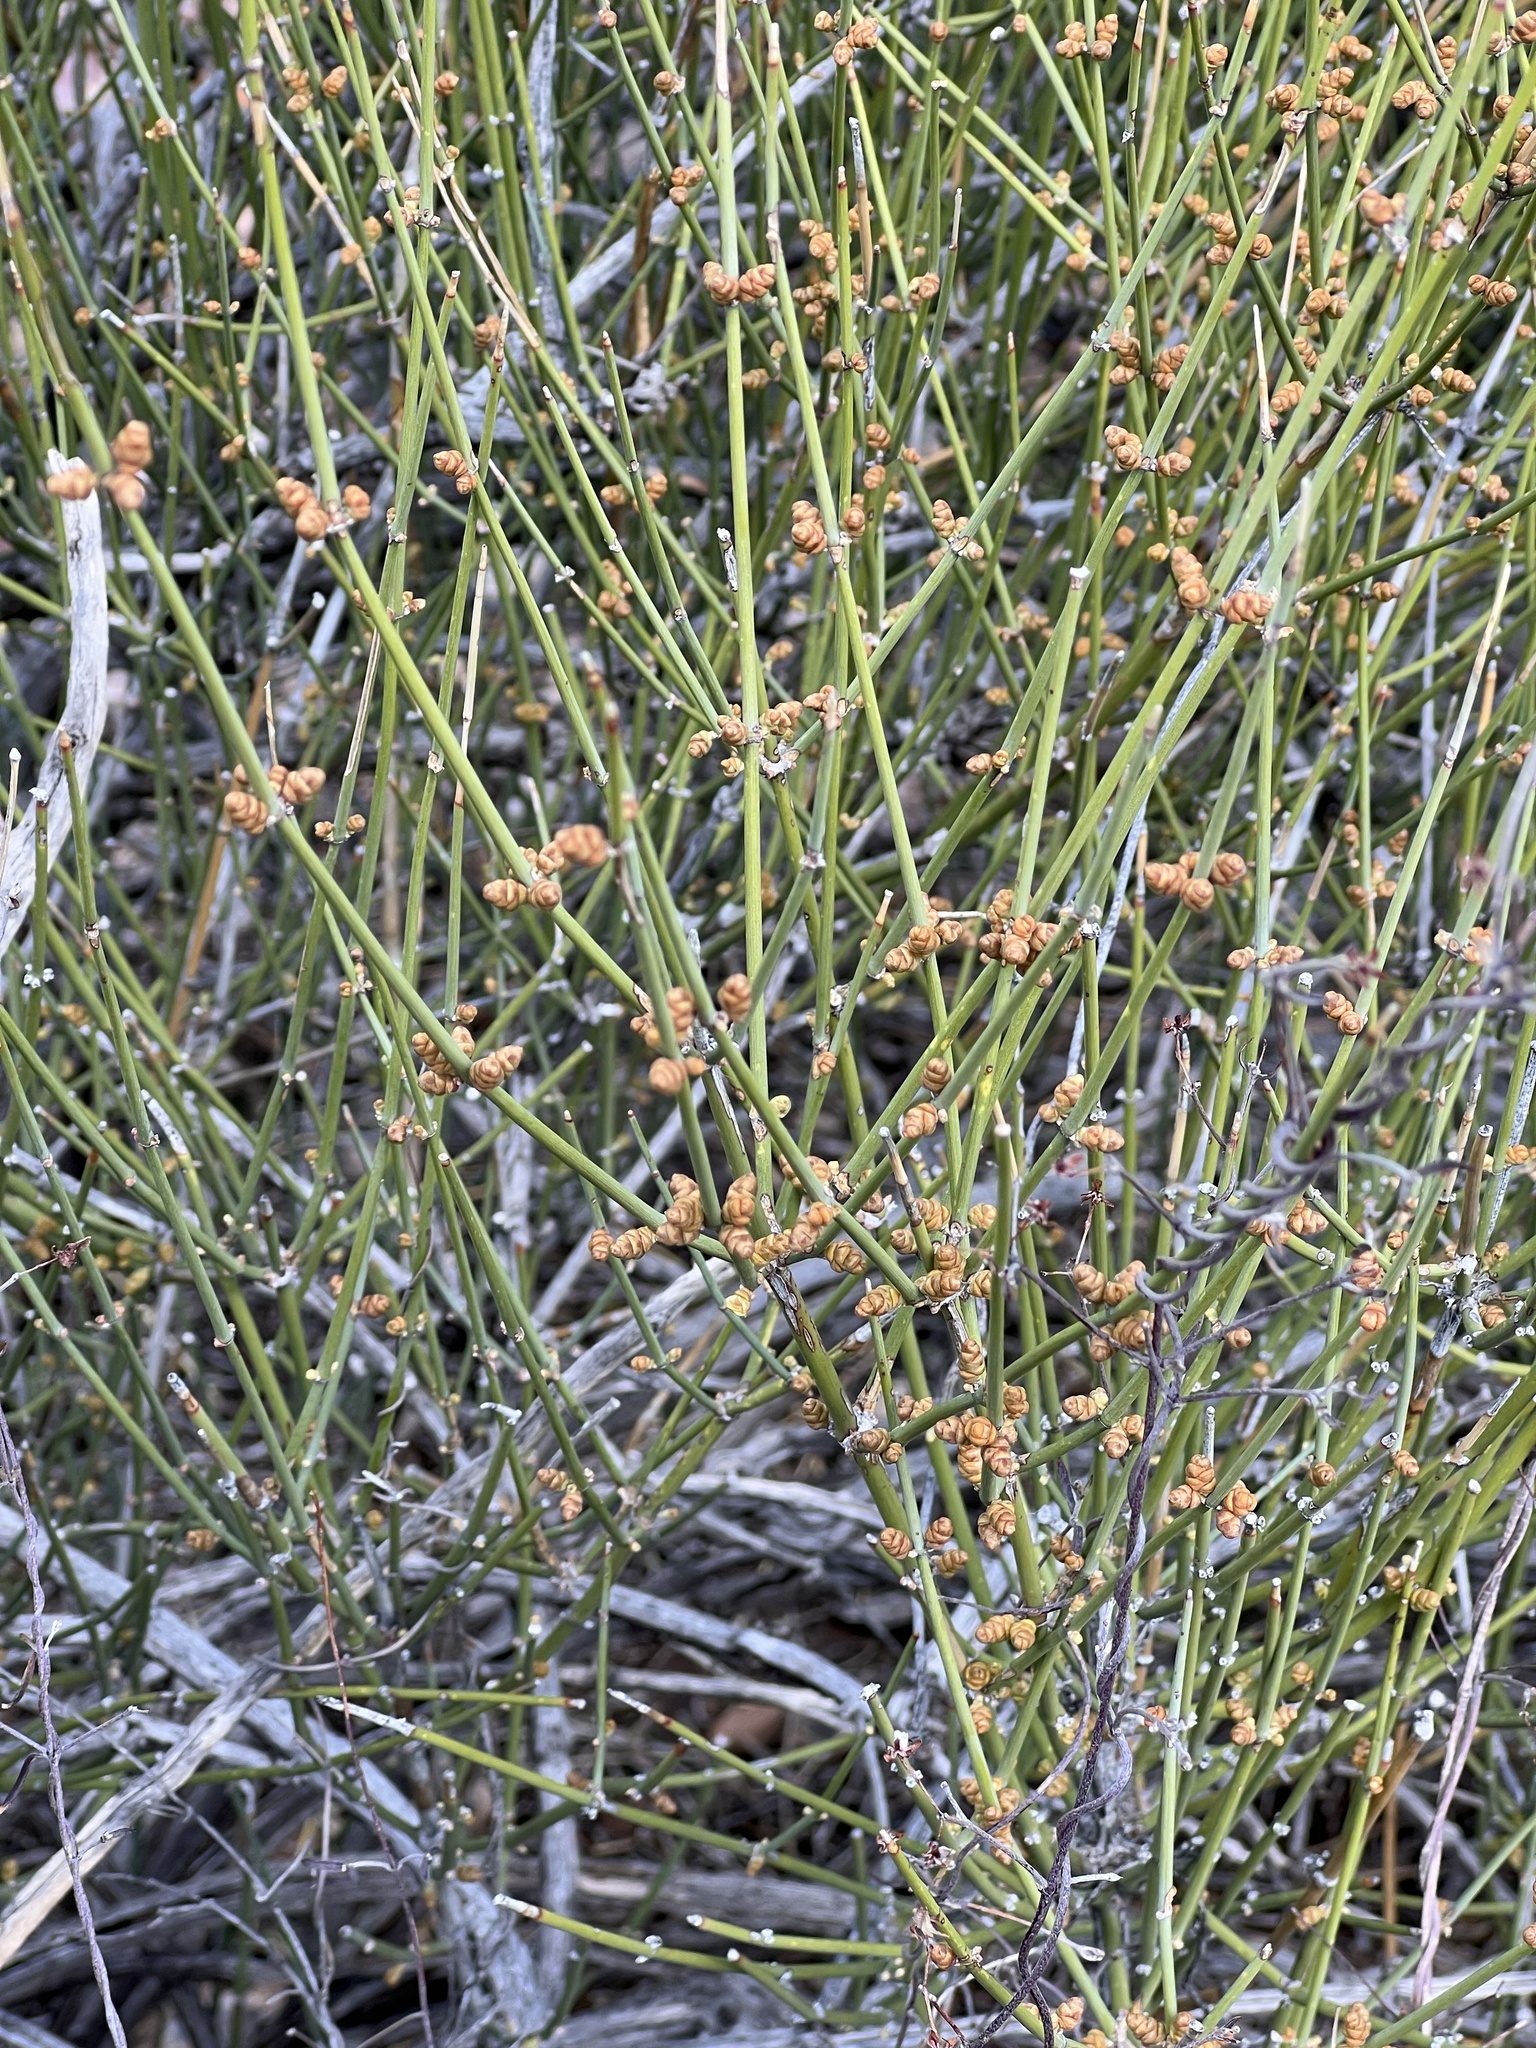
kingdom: Plantae
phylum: Tracheophyta
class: Gnetopsida
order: Ephedrales
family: Ephedraceae
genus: Ephedra
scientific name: Ephedra trifurca
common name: Mexican-tea
